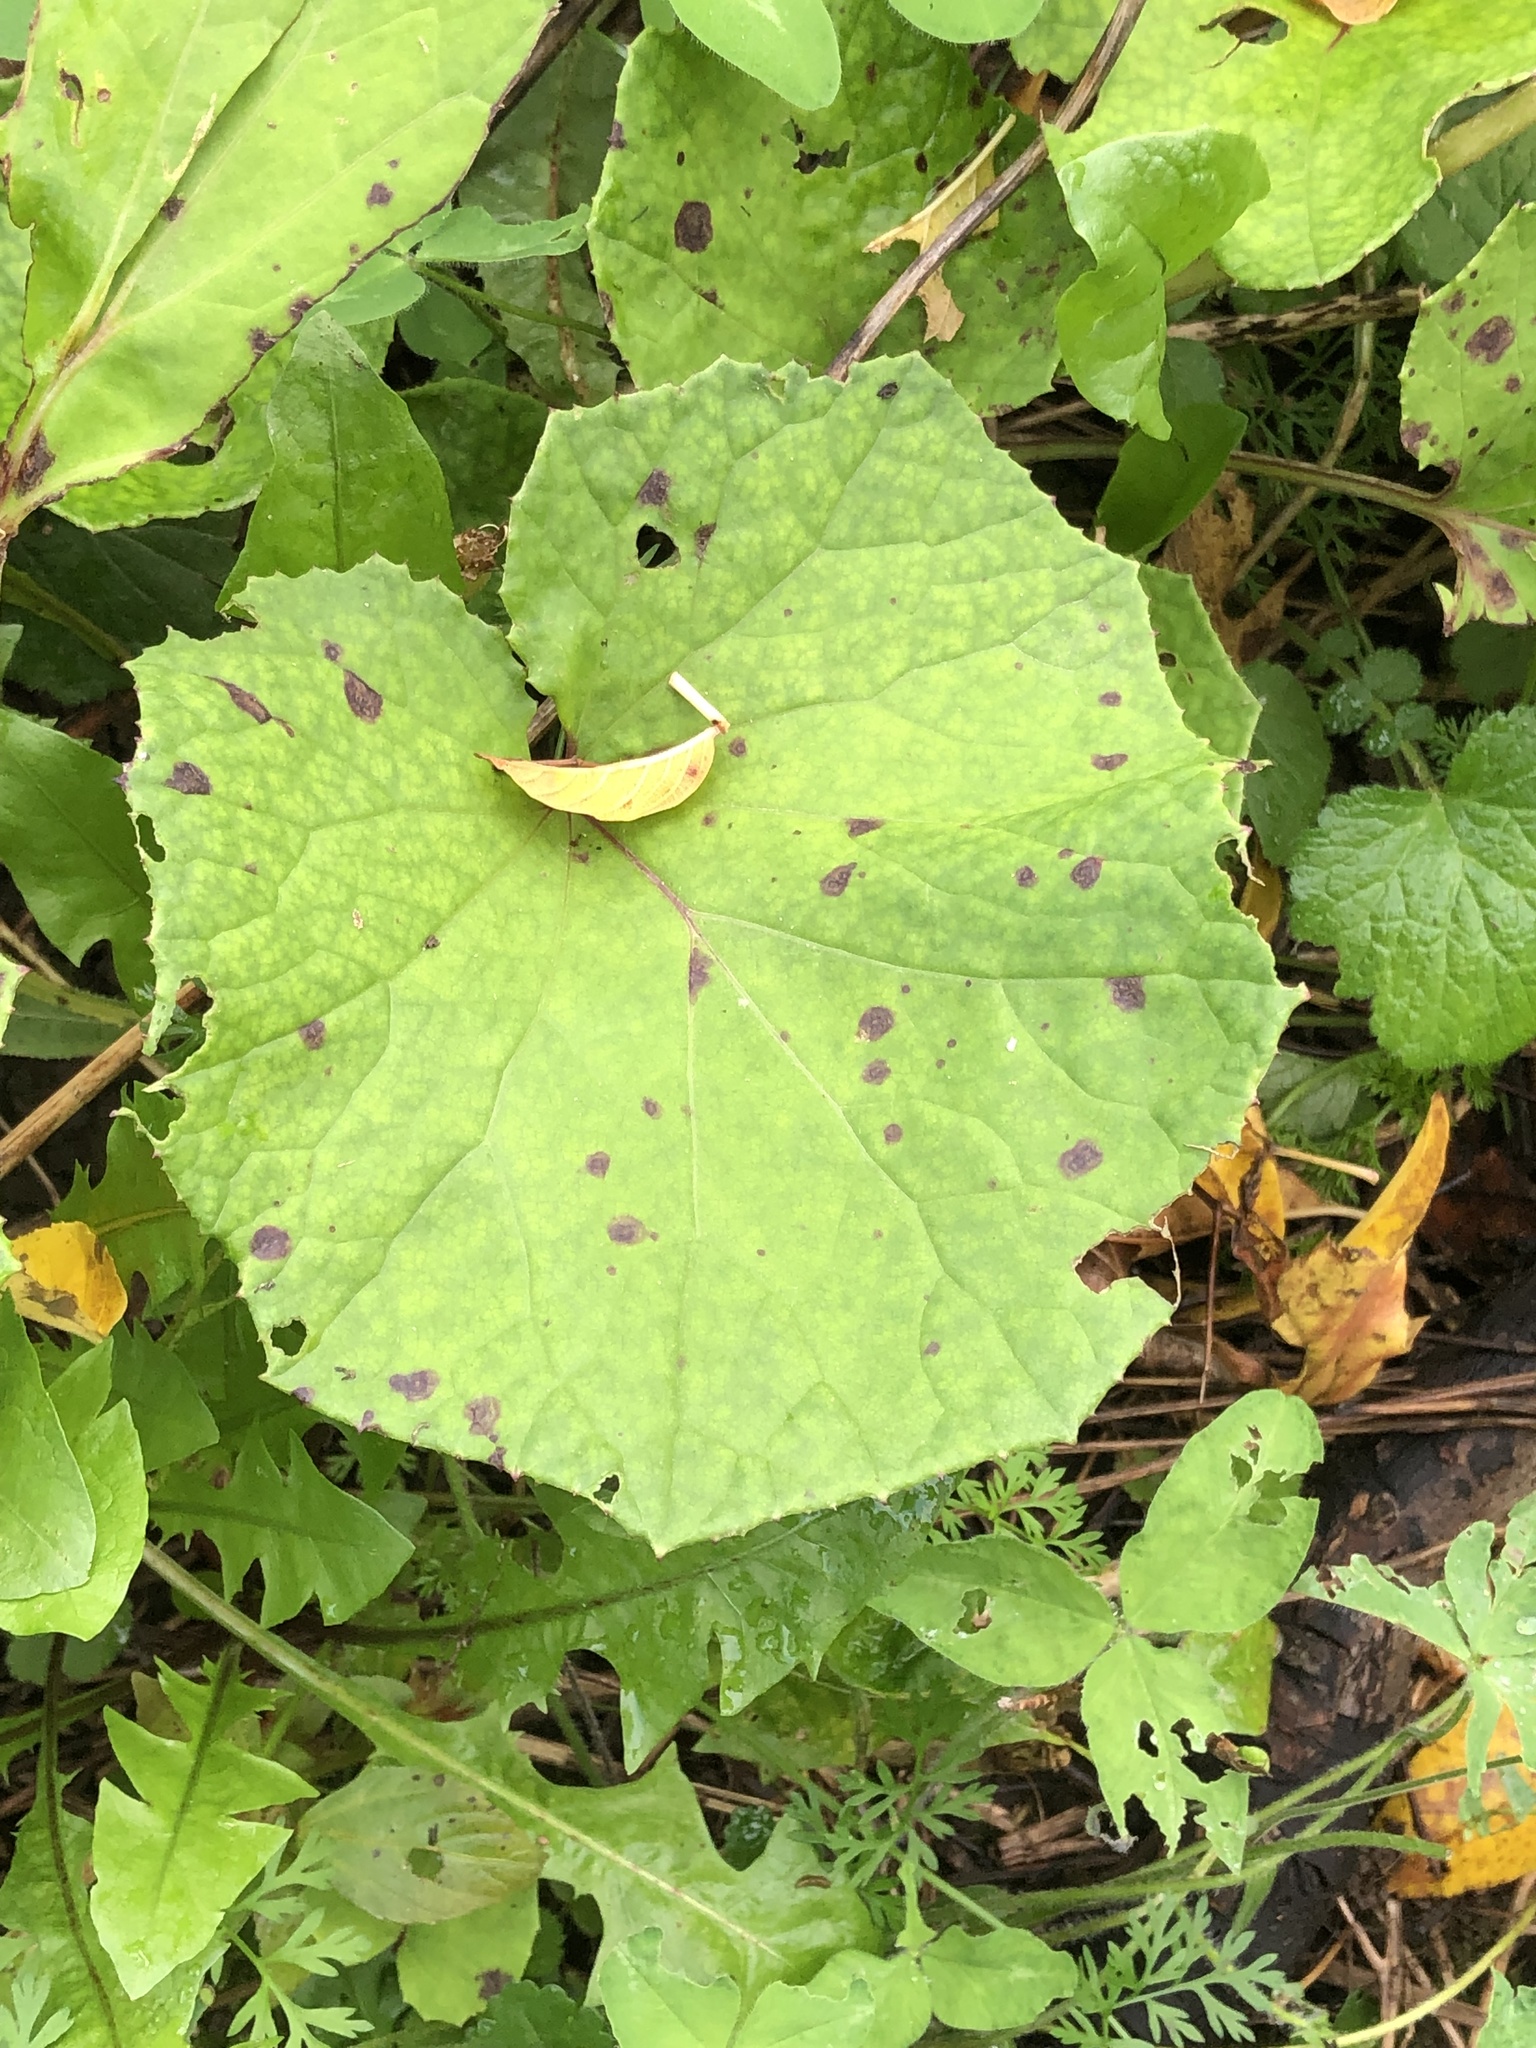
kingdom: Plantae
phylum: Tracheophyta
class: Magnoliopsida
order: Asterales
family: Asteraceae
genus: Tussilago
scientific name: Tussilago farfara
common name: Coltsfoot
